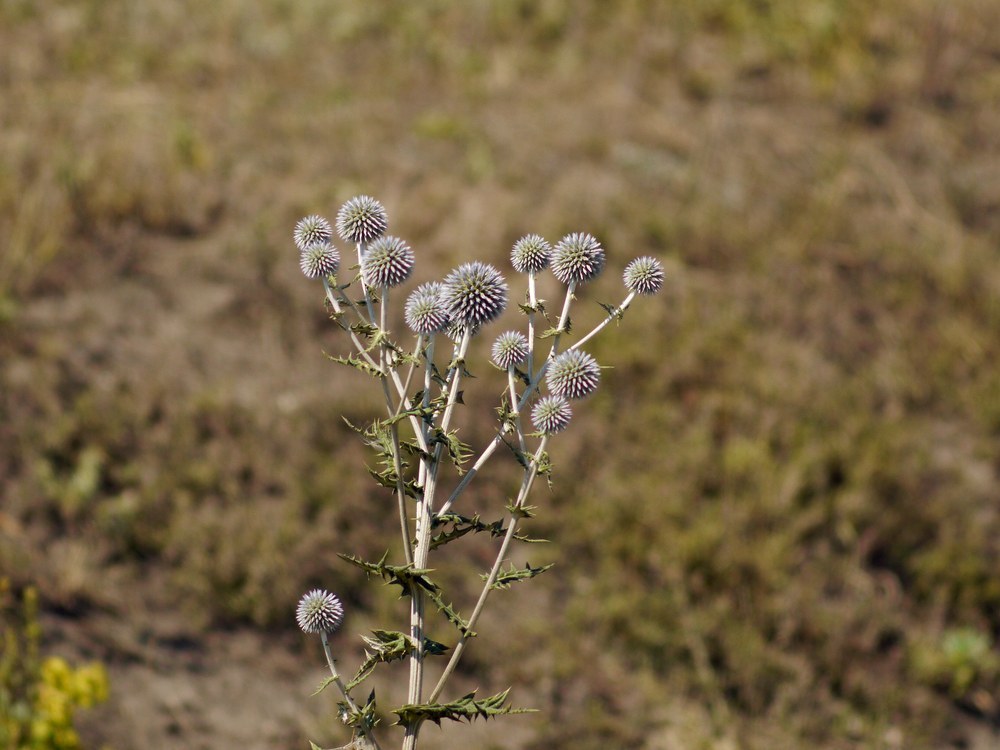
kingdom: Plantae
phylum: Tracheophyta
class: Magnoliopsida
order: Asterales
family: Asteraceae
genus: Echinops
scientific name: Echinops sphaerocephalus
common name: Glandular globe-thistle
